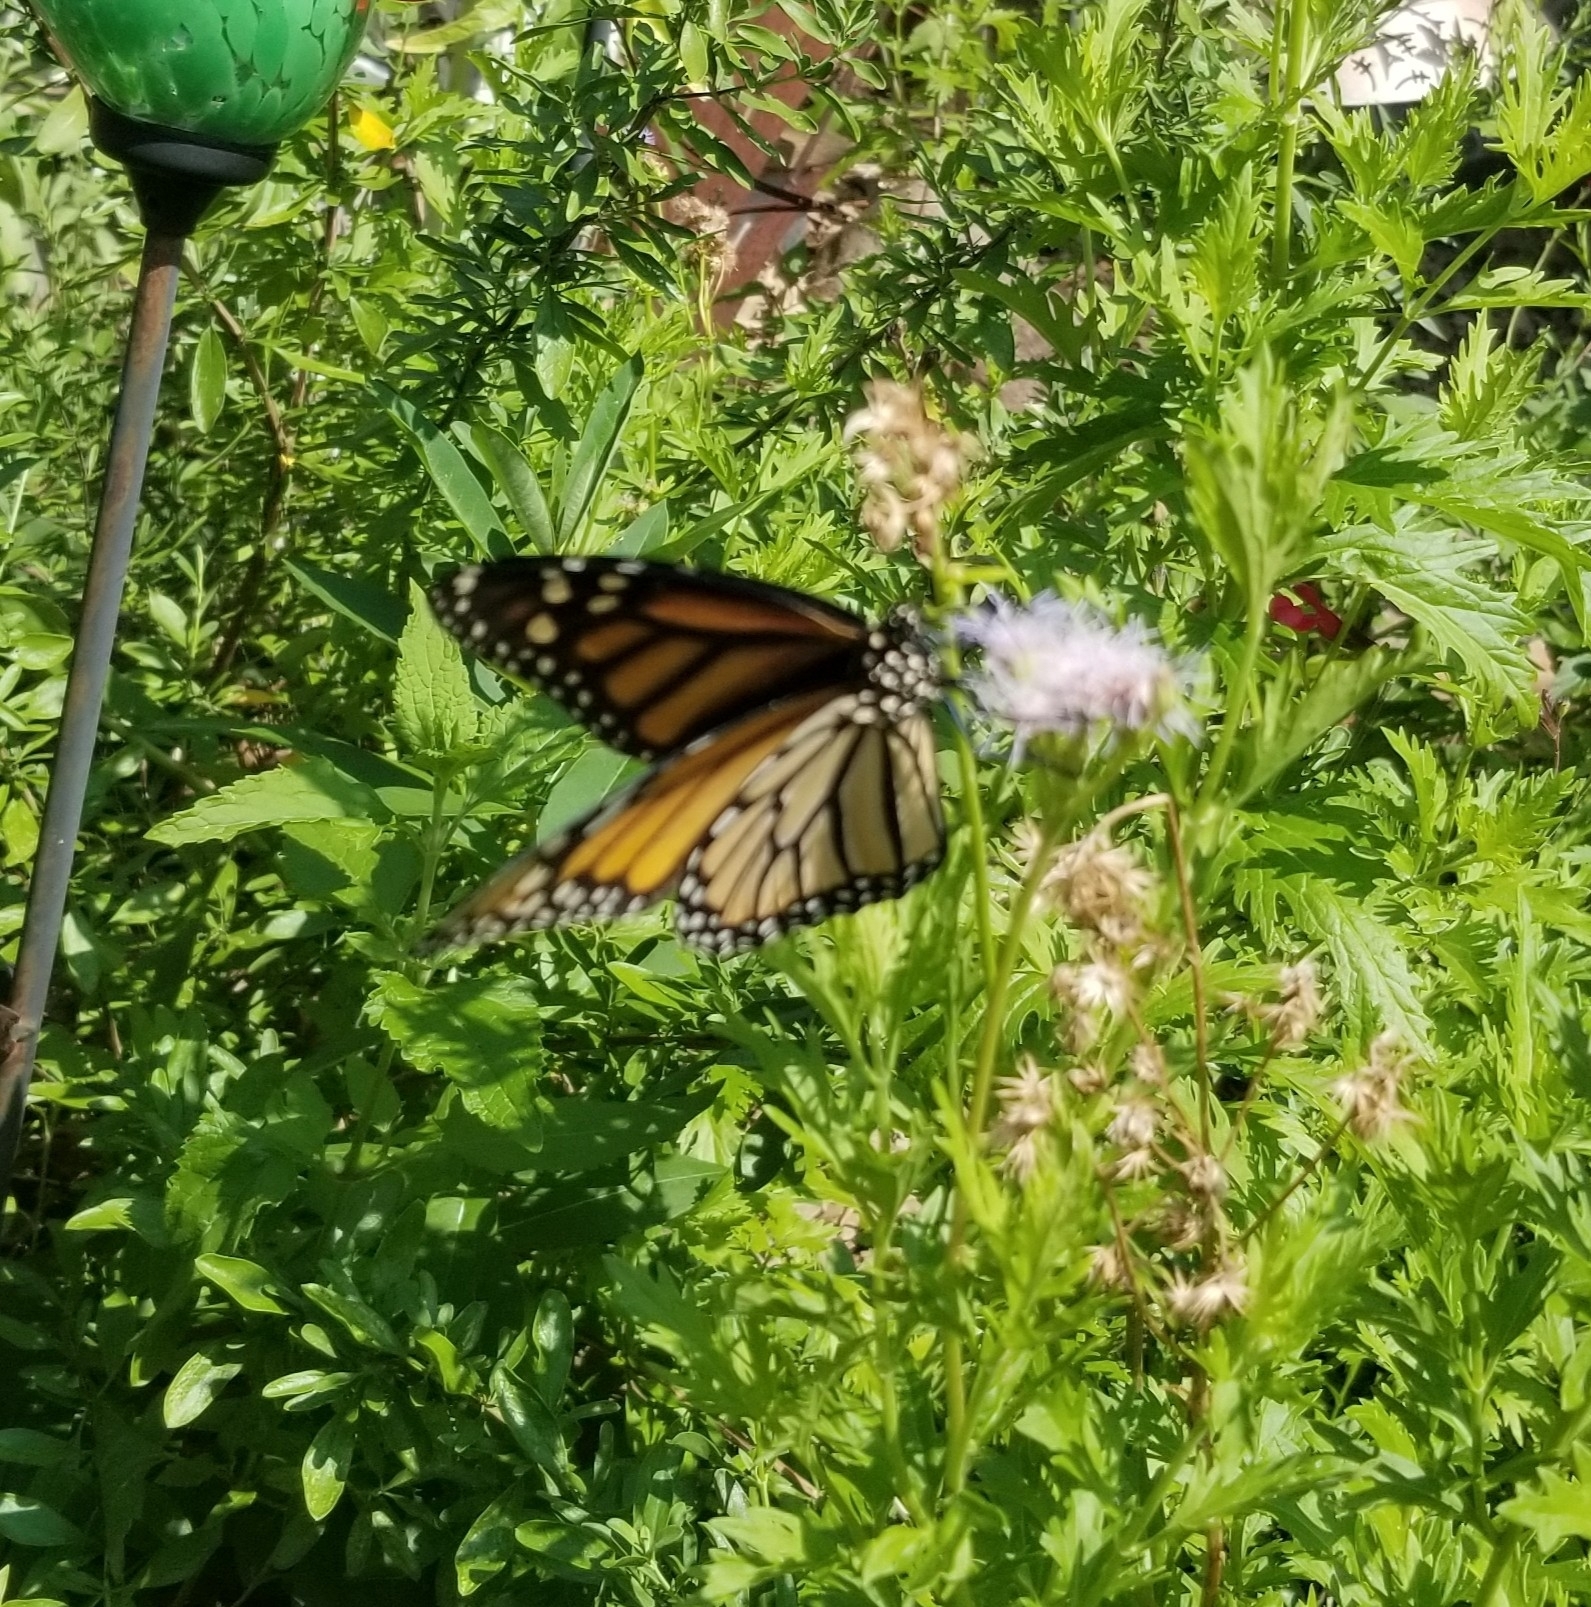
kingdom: Animalia
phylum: Arthropoda
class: Insecta
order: Lepidoptera
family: Nymphalidae
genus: Danaus
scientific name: Danaus plexippus
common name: Monarch
